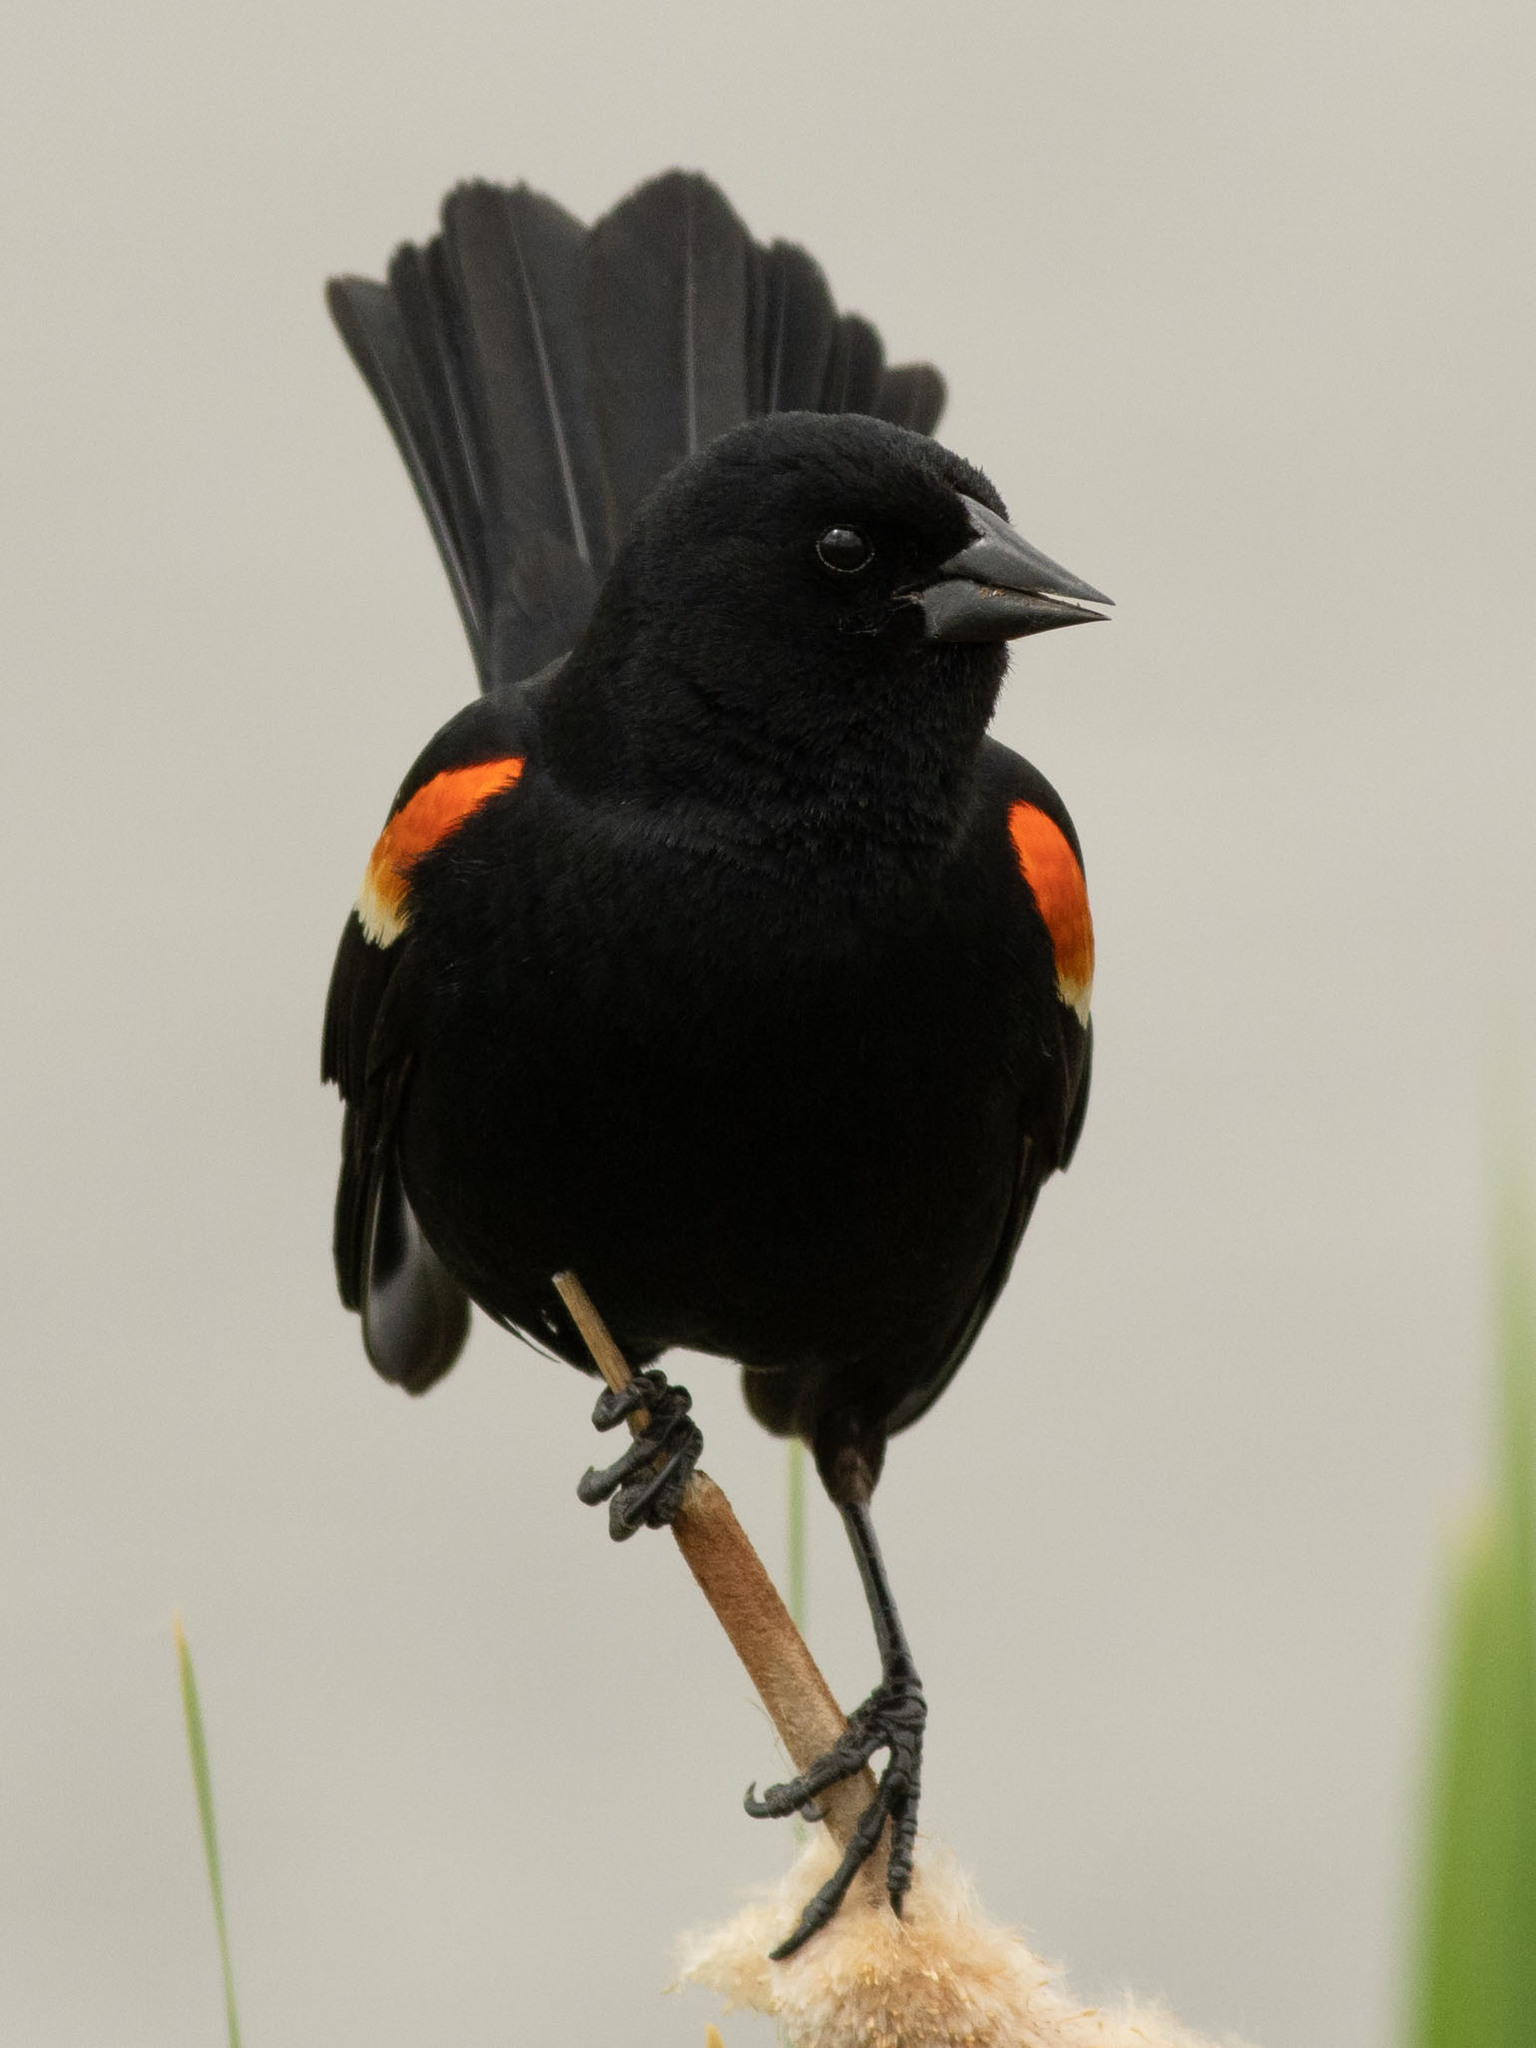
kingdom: Animalia
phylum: Chordata
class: Aves
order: Passeriformes
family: Icteridae
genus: Agelaius
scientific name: Agelaius phoeniceus
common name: Red-winged blackbird
